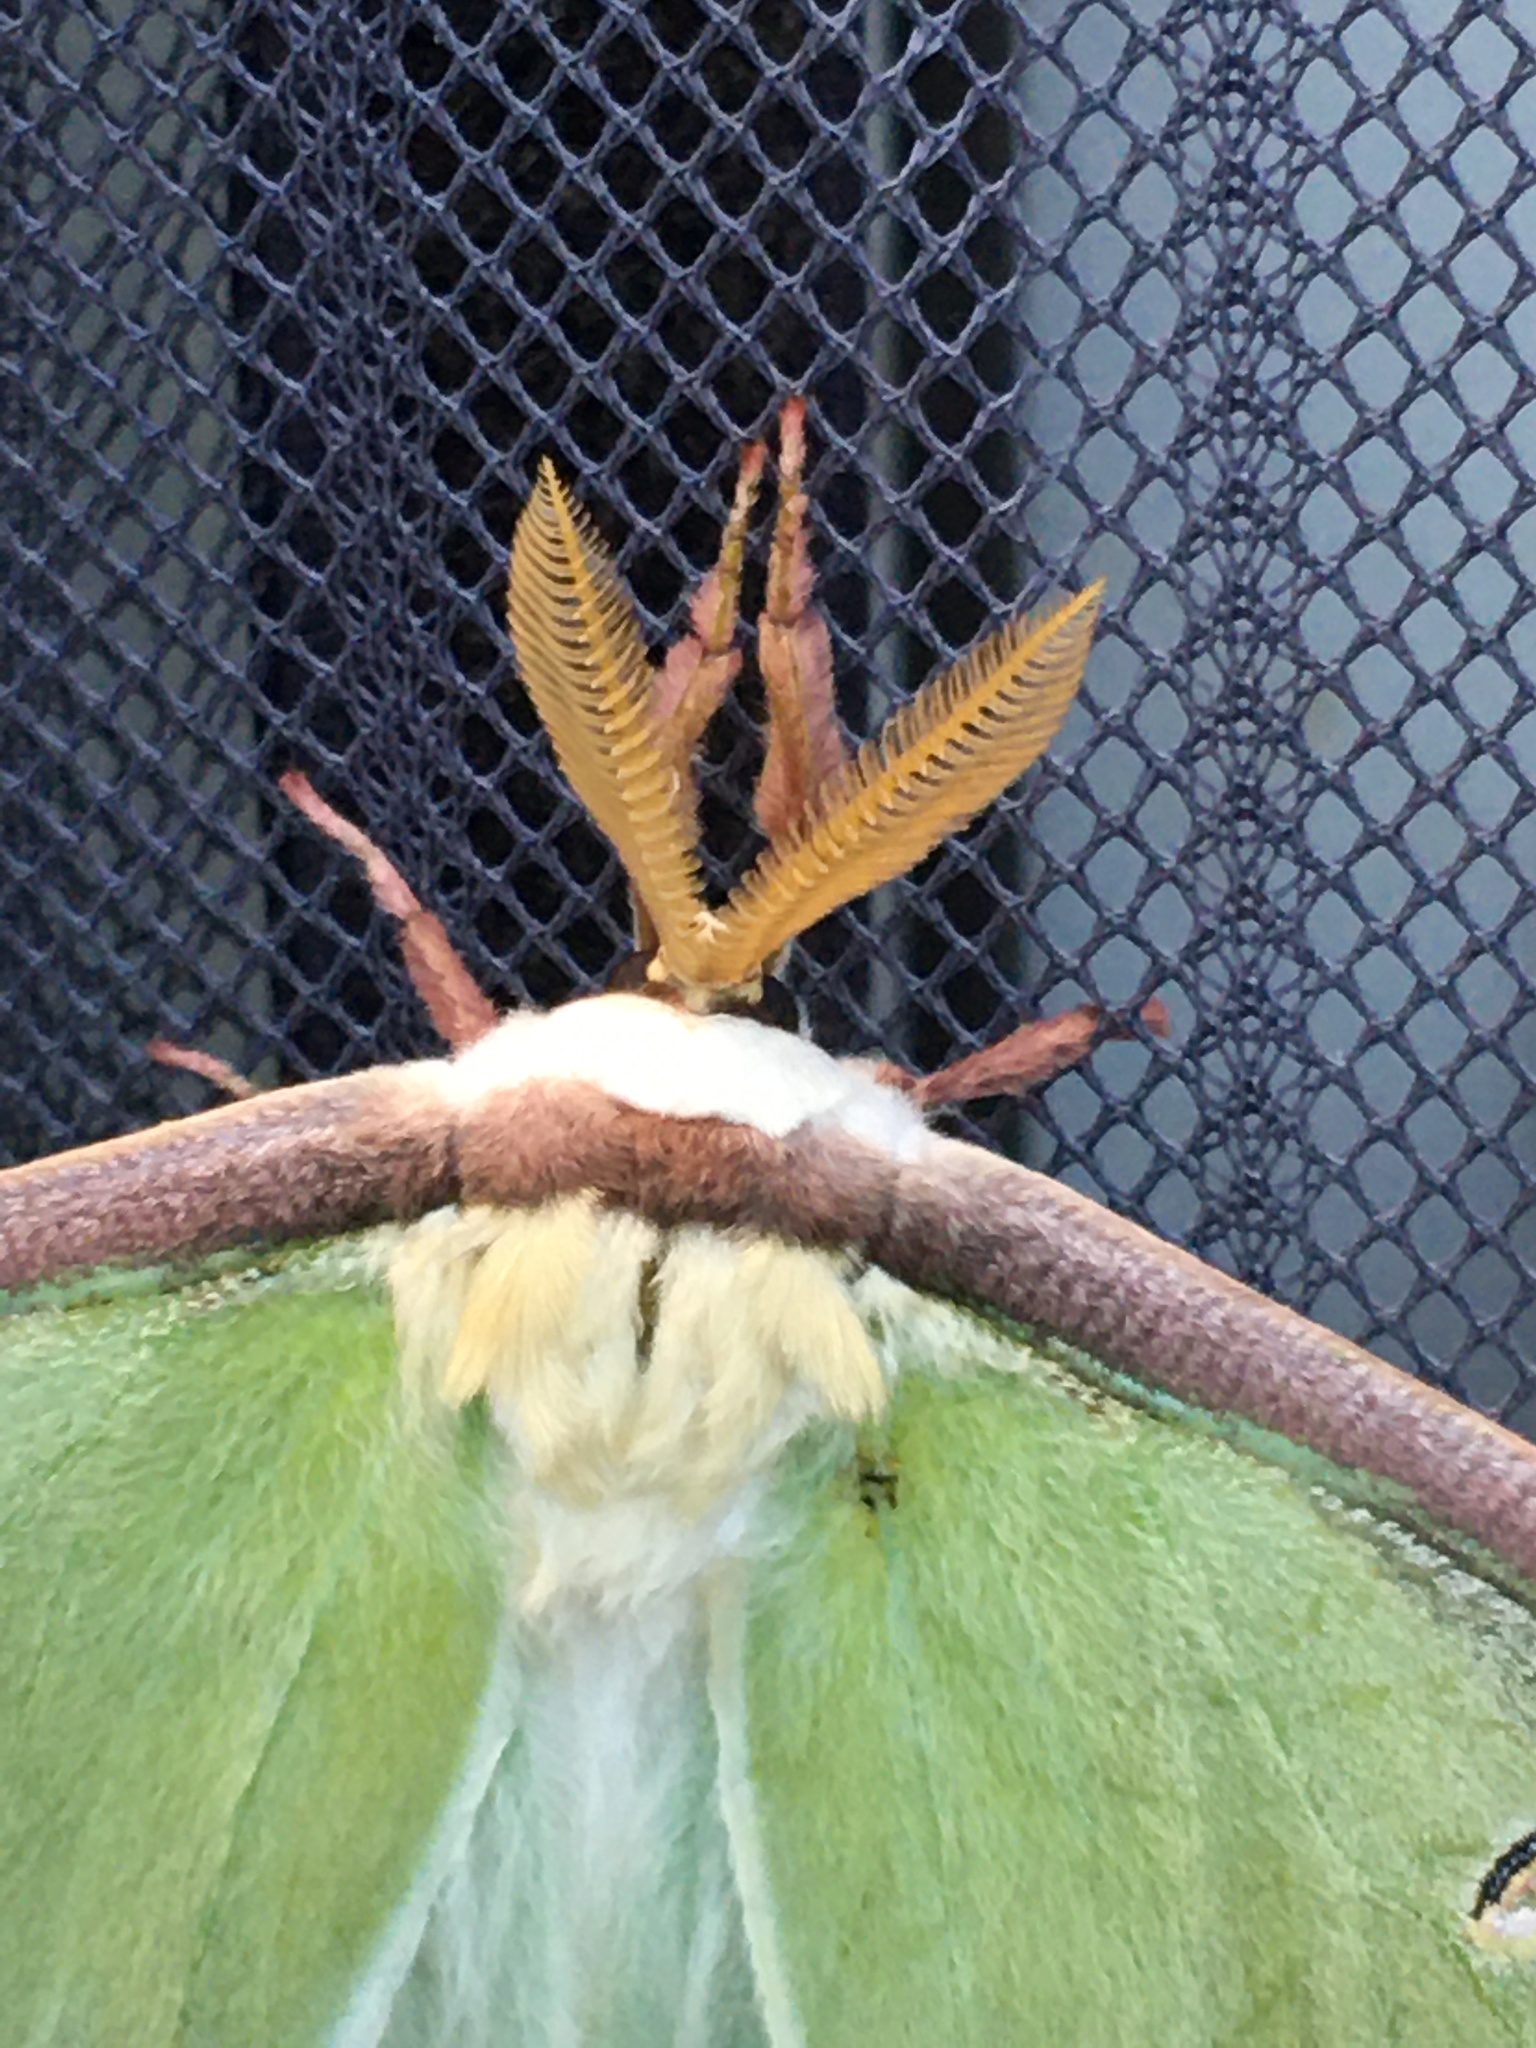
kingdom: Animalia
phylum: Arthropoda
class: Insecta
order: Lepidoptera
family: Saturniidae
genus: Actias
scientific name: Actias luna
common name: Luna moth
